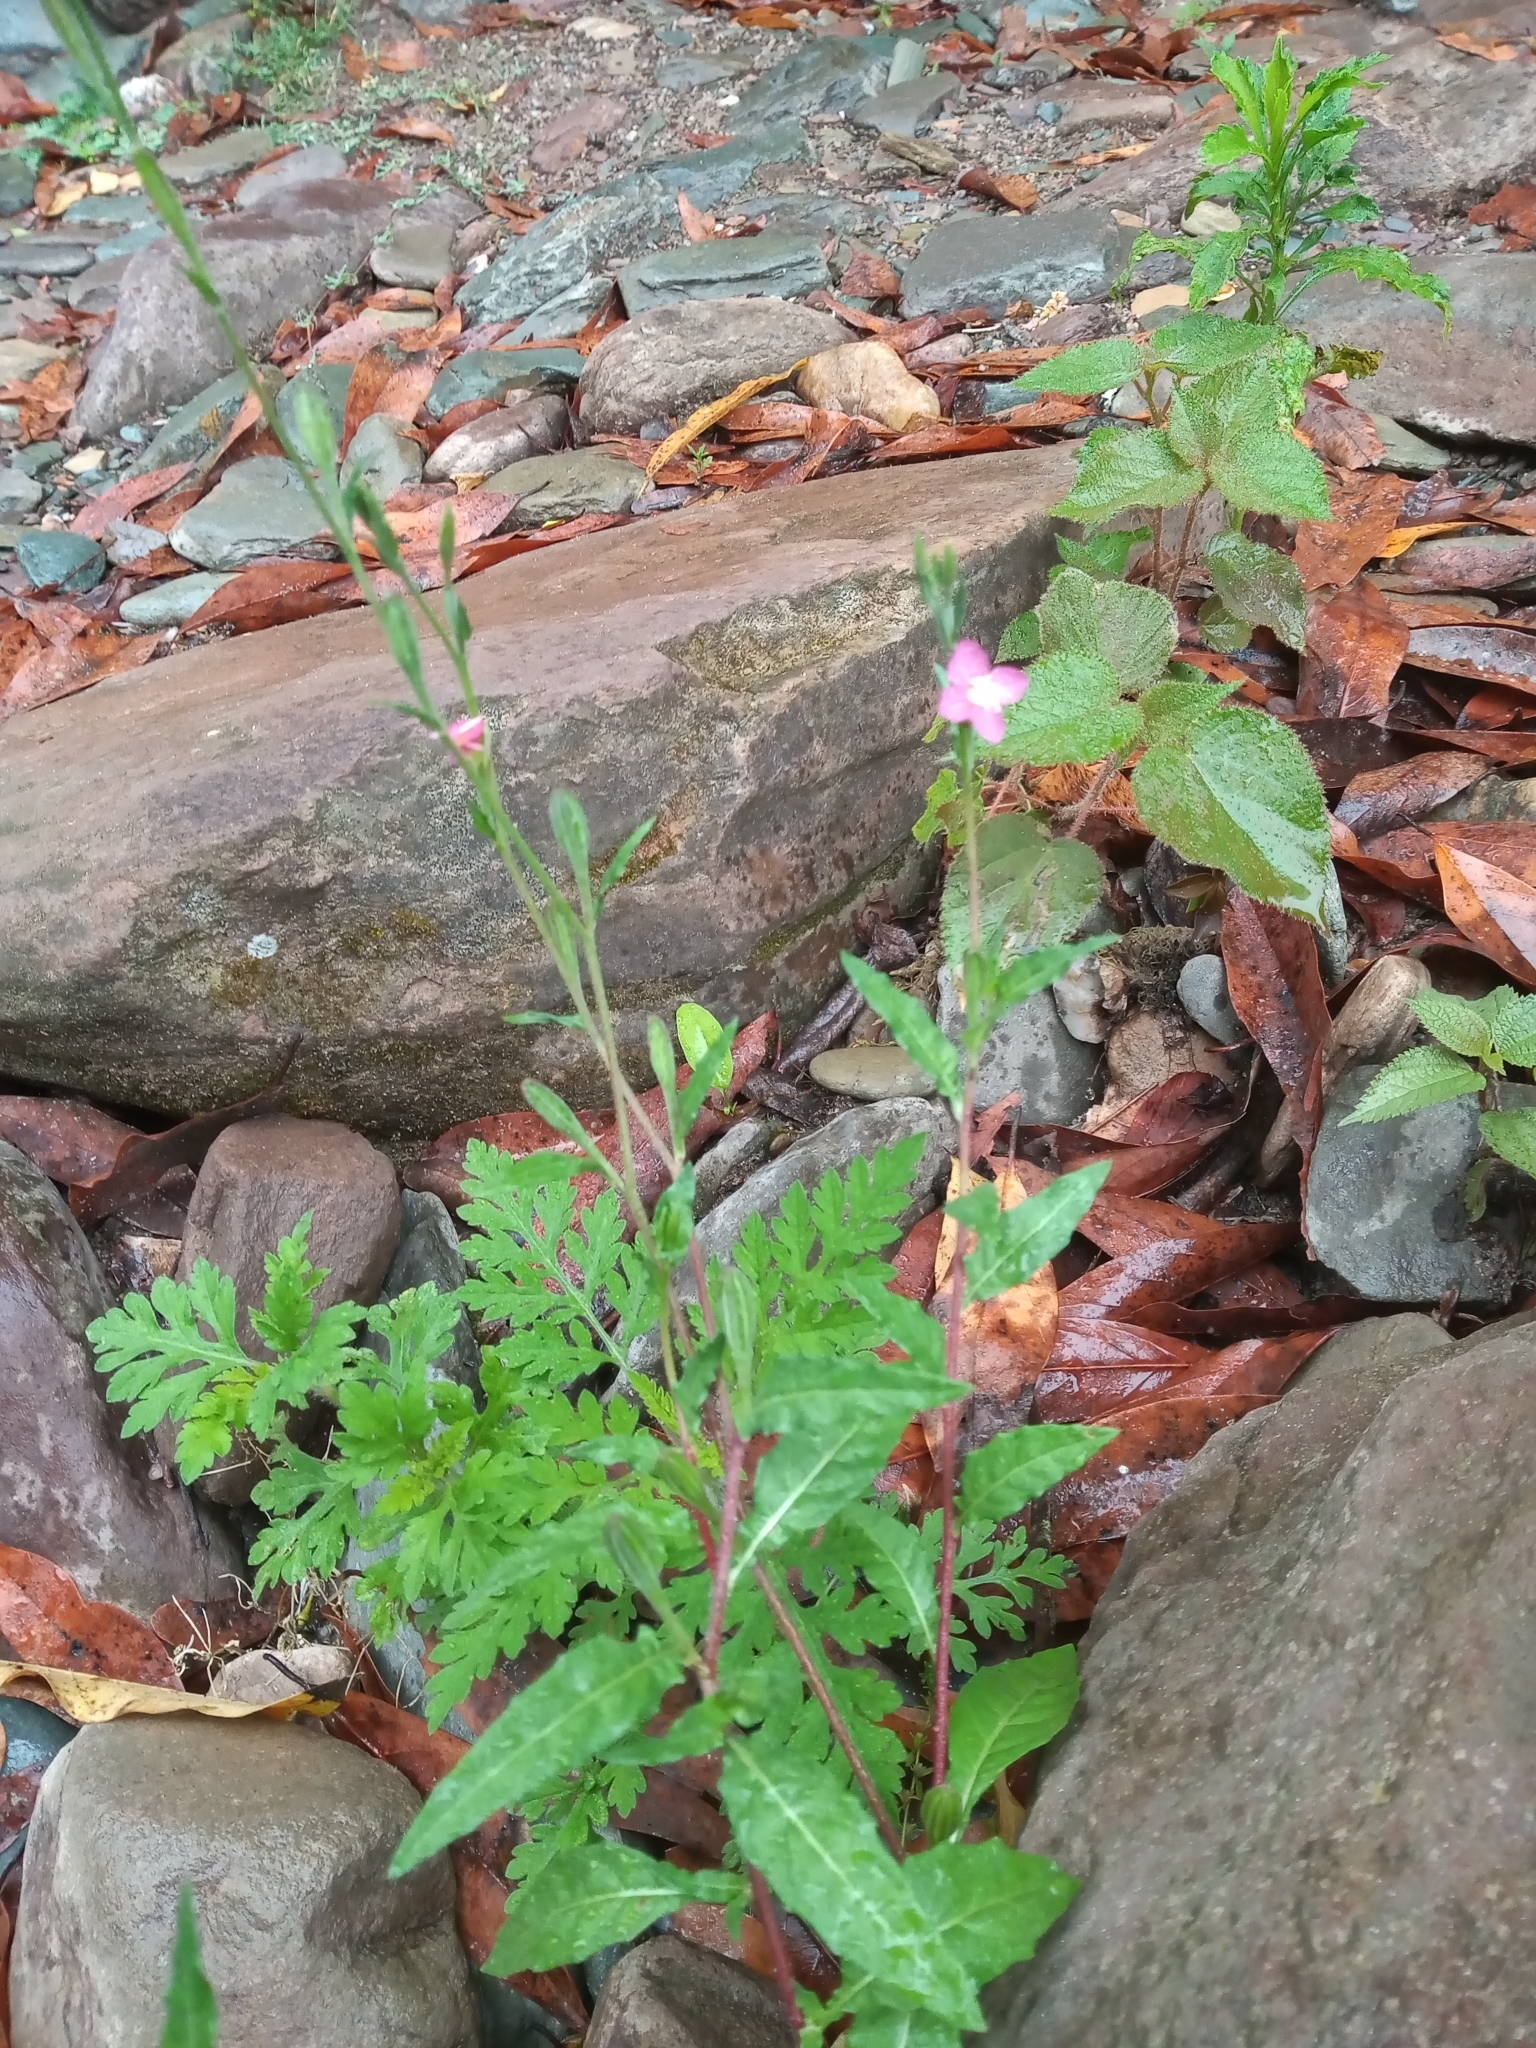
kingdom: Plantae
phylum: Tracheophyta
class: Magnoliopsida
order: Myrtales
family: Onagraceae
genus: Oenothera
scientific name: Oenothera rosea
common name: Rosy evening-primrose
